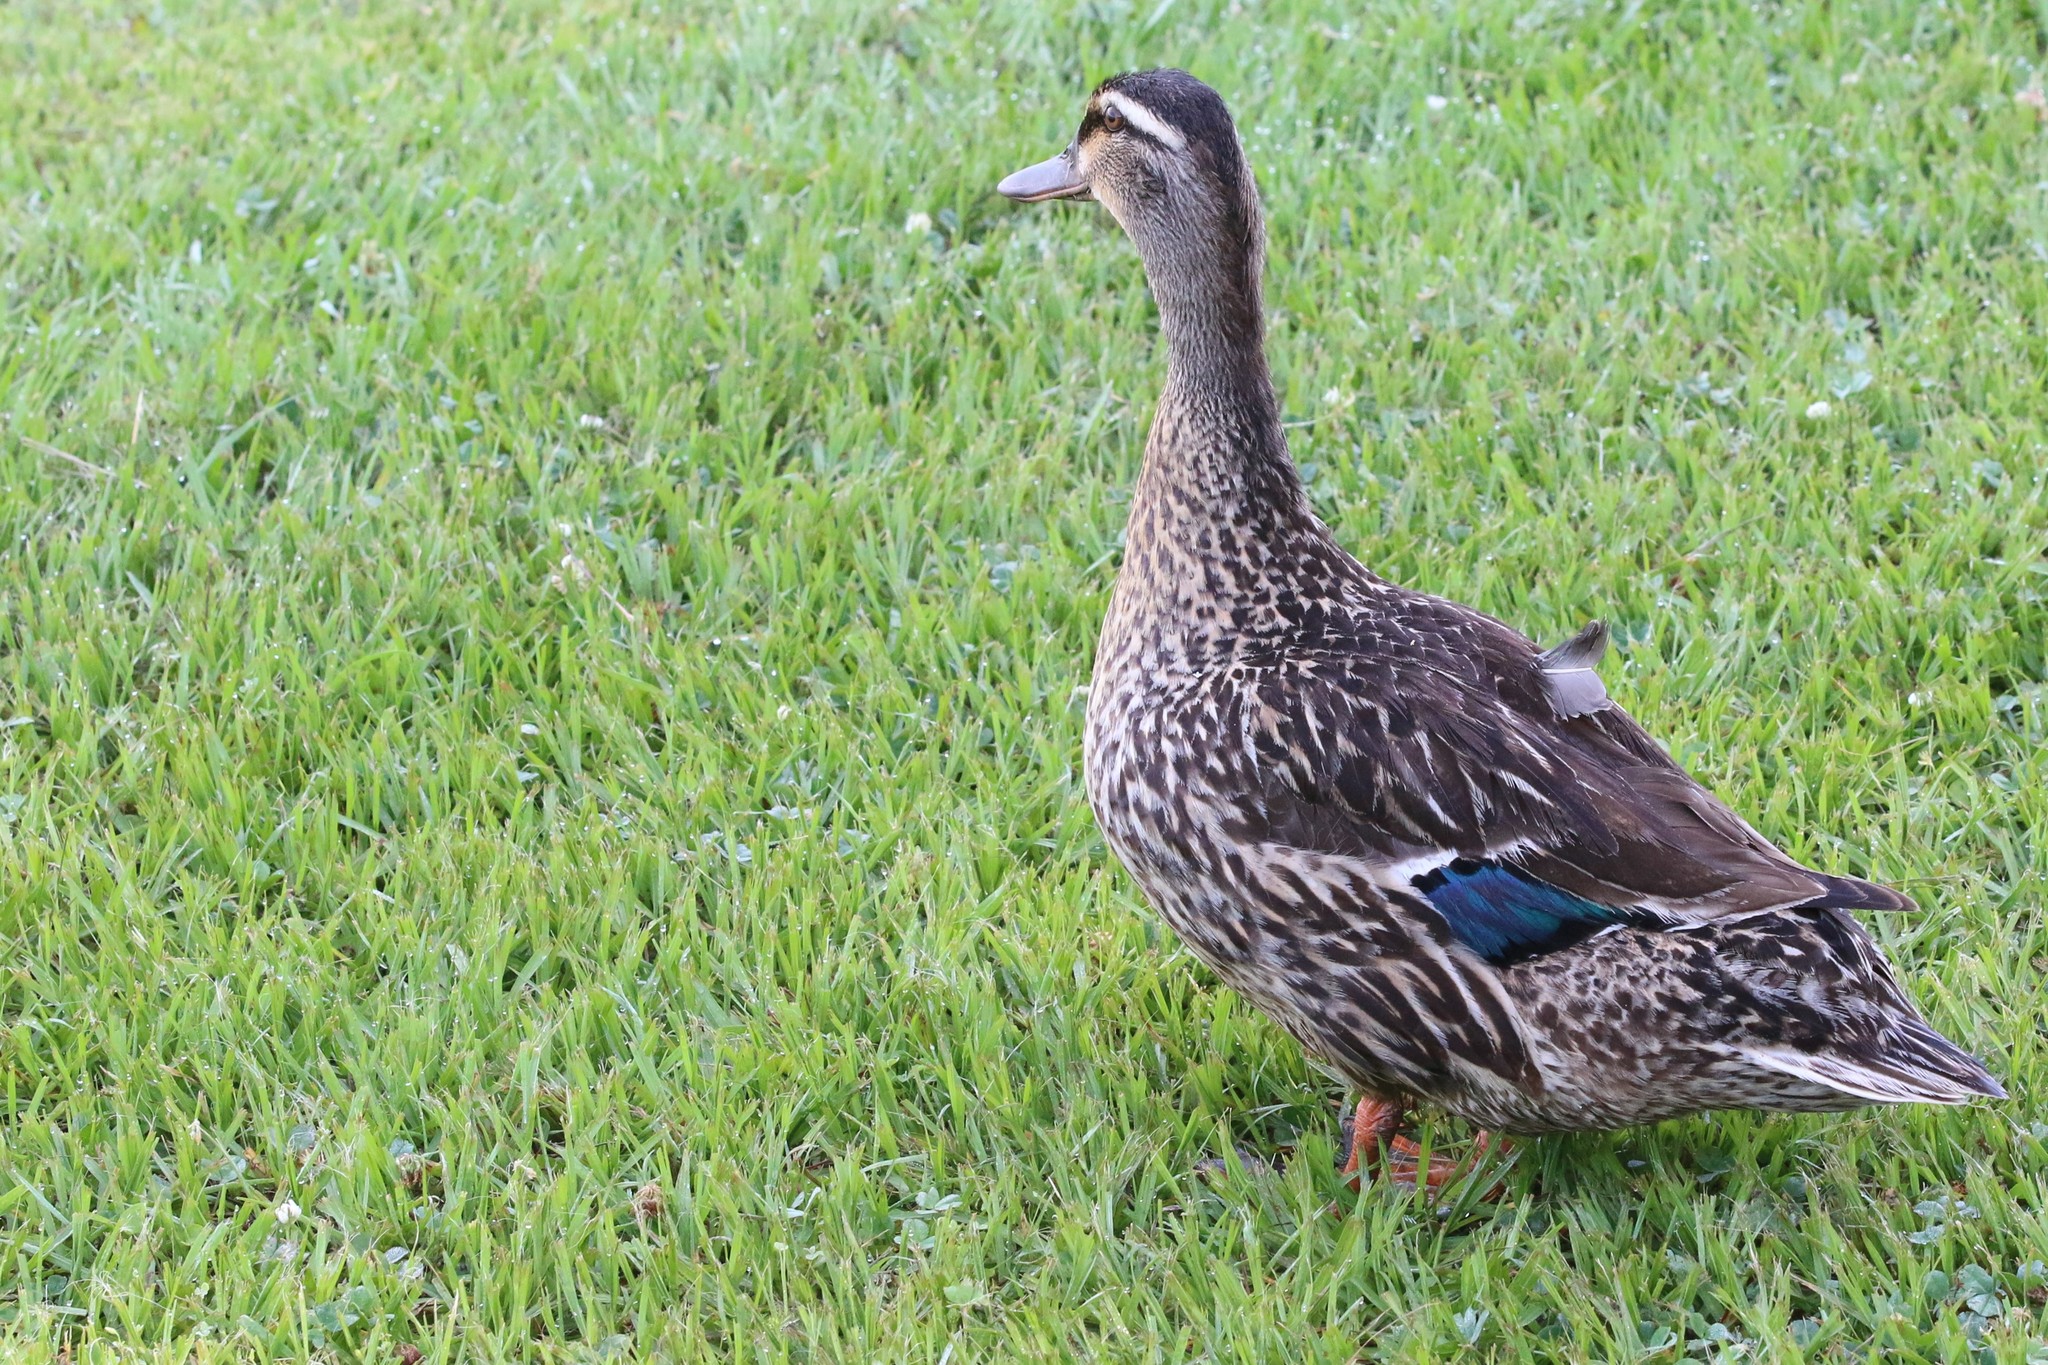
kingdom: Animalia
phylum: Chordata
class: Aves
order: Anseriformes
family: Anatidae
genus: Anas
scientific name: Anas platyrhynchos
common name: Mallard
